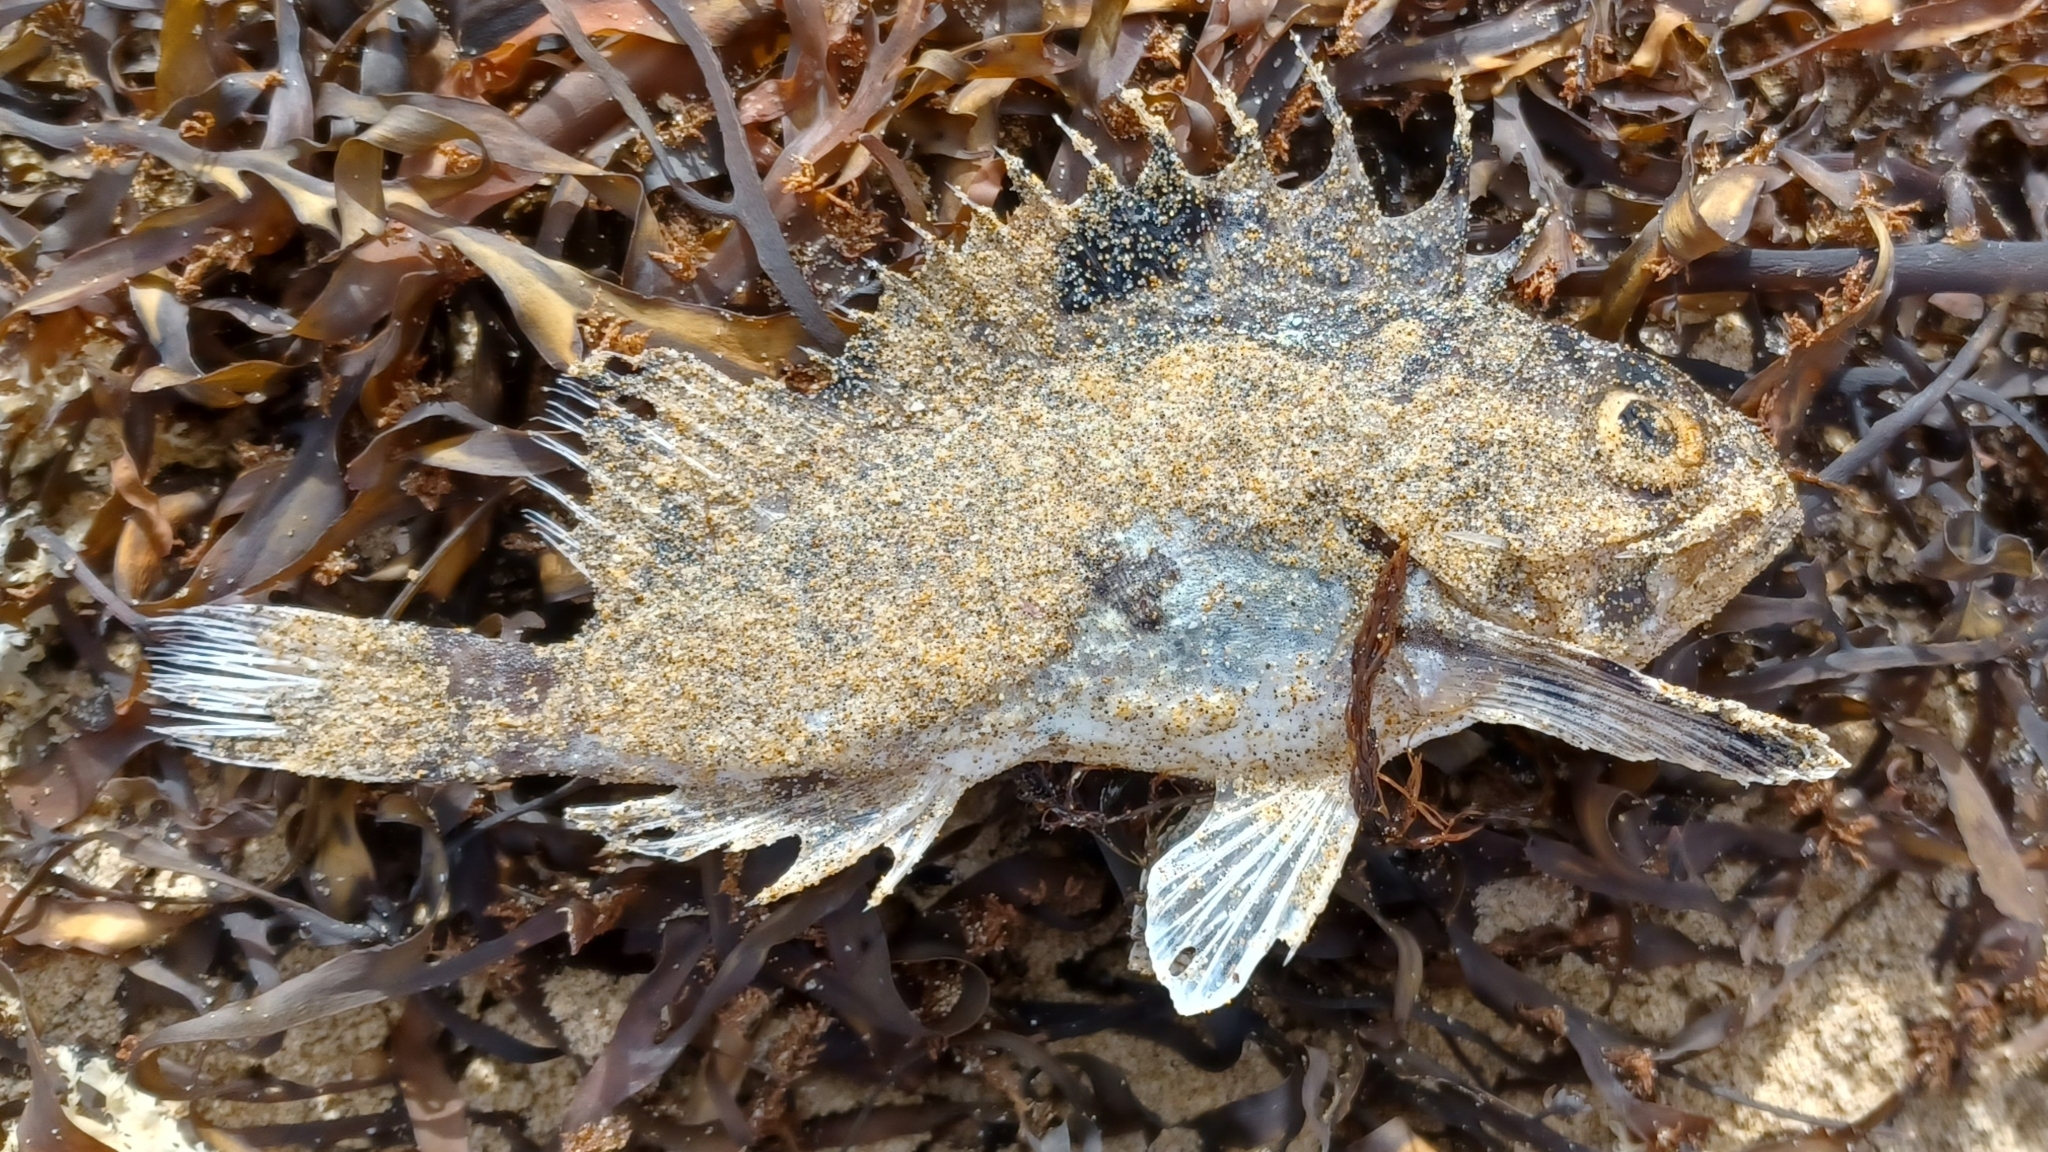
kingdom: Animalia
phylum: Chordata
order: Scorpaeniformes
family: Tetrarogidae
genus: Gymnapistes
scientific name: Gymnapistes marmoratus
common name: South australian cobbler
